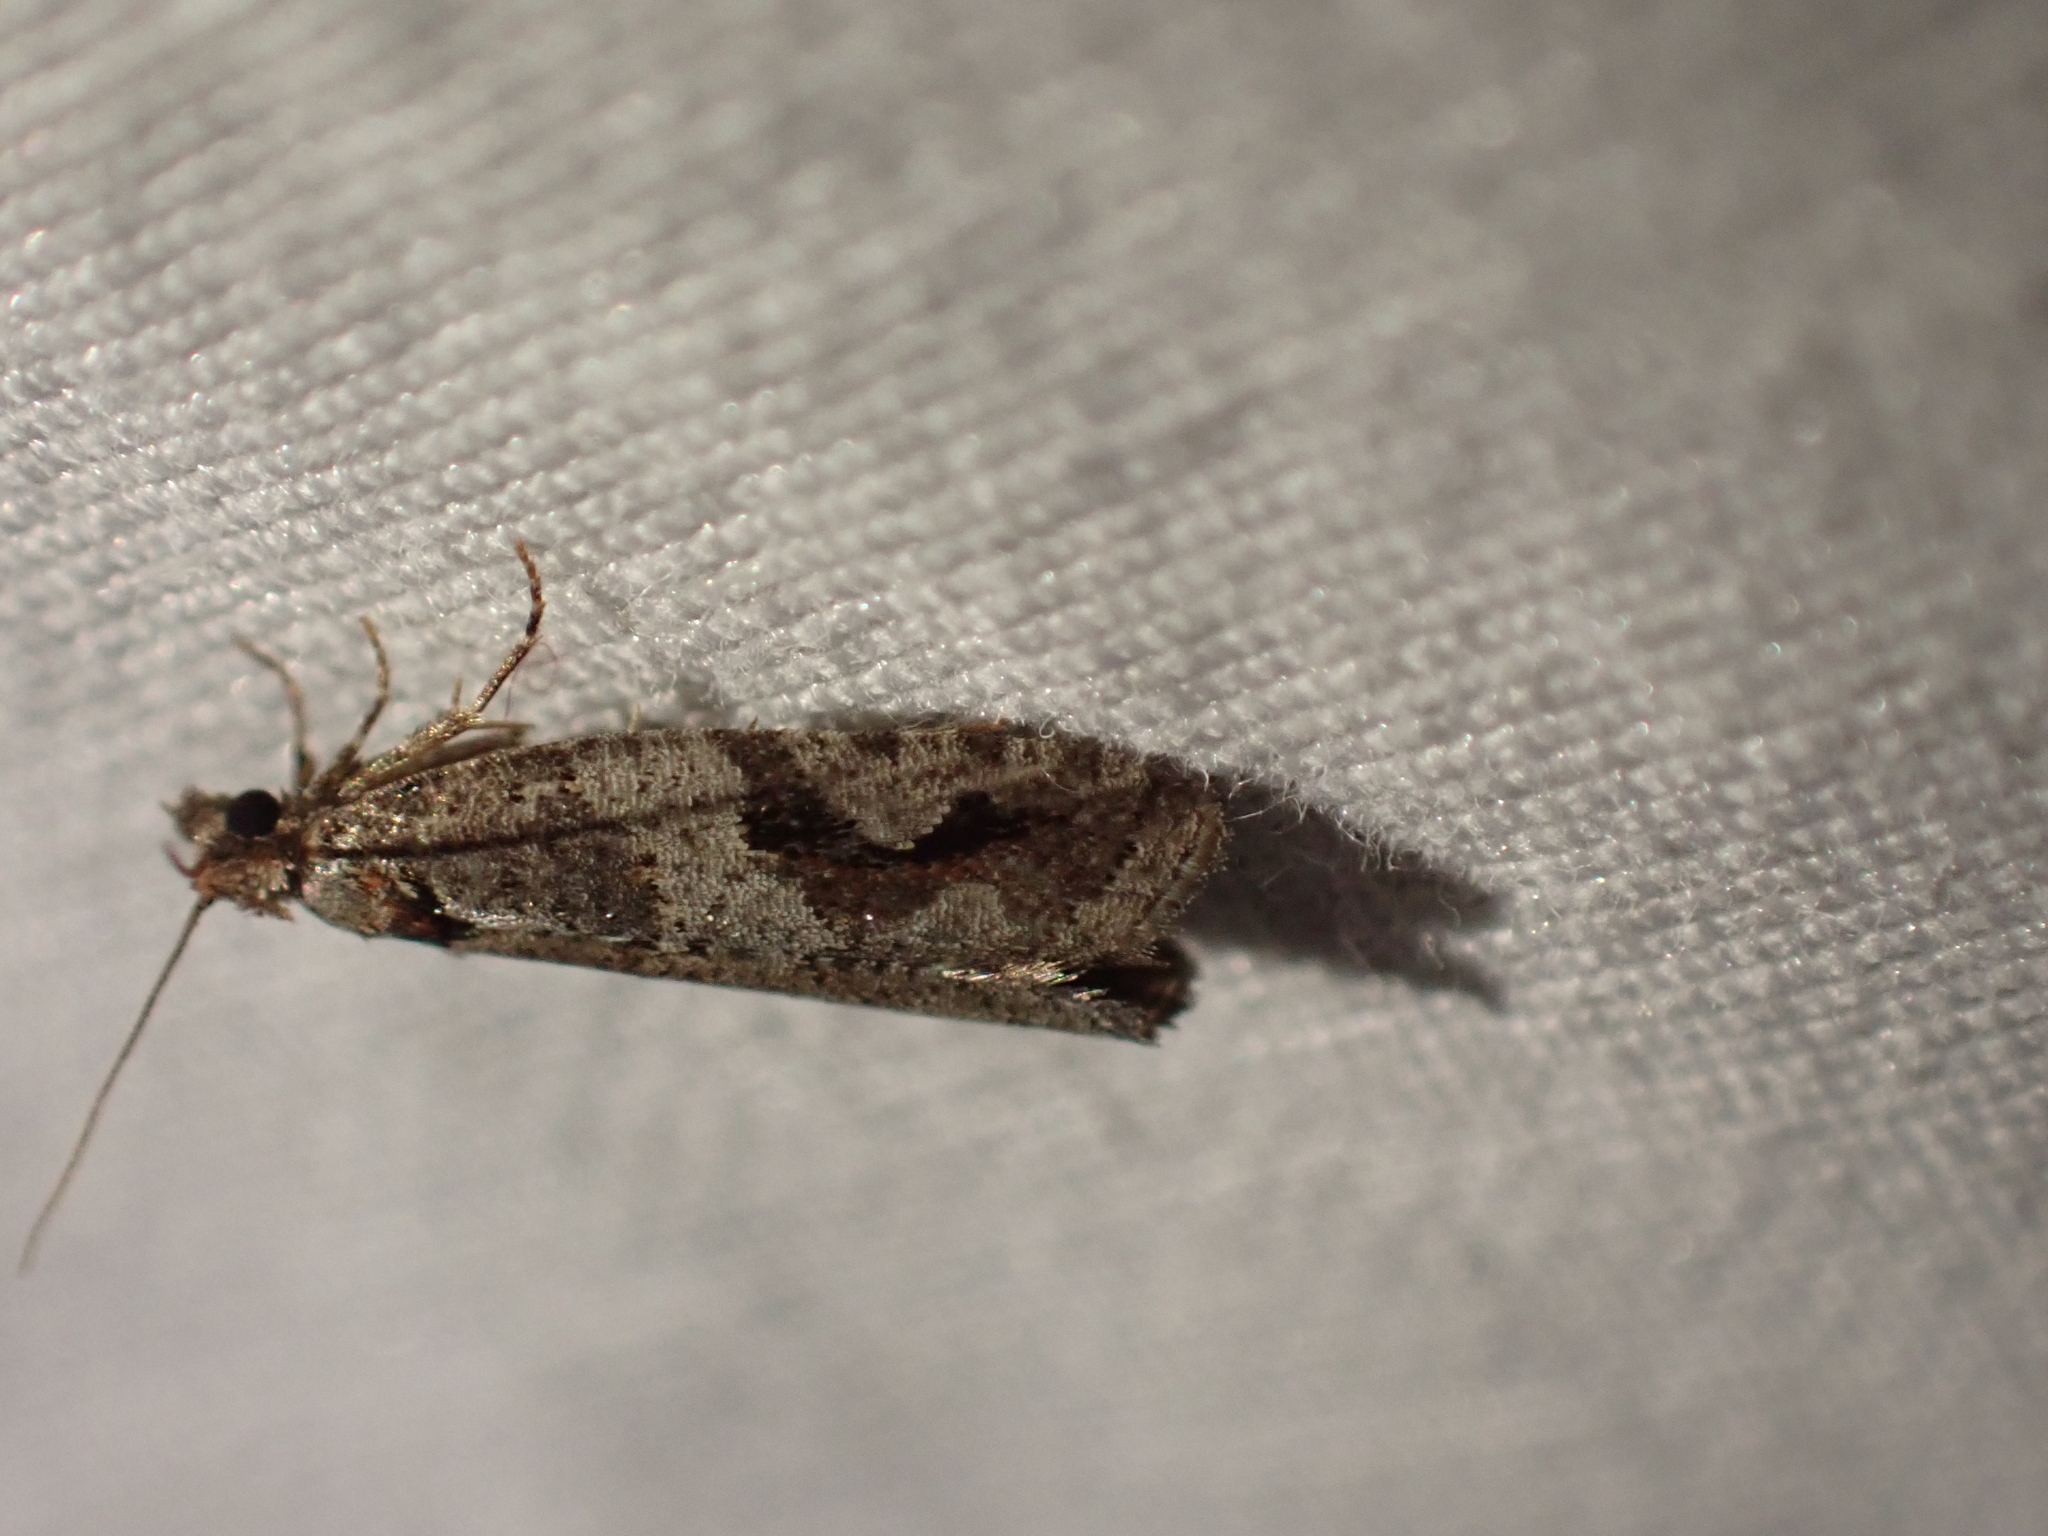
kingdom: Animalia
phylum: Arthropoda
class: Insecta
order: Lepidoptera
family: Tortricidae
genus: Epinotia
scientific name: Epinotia signiferana
